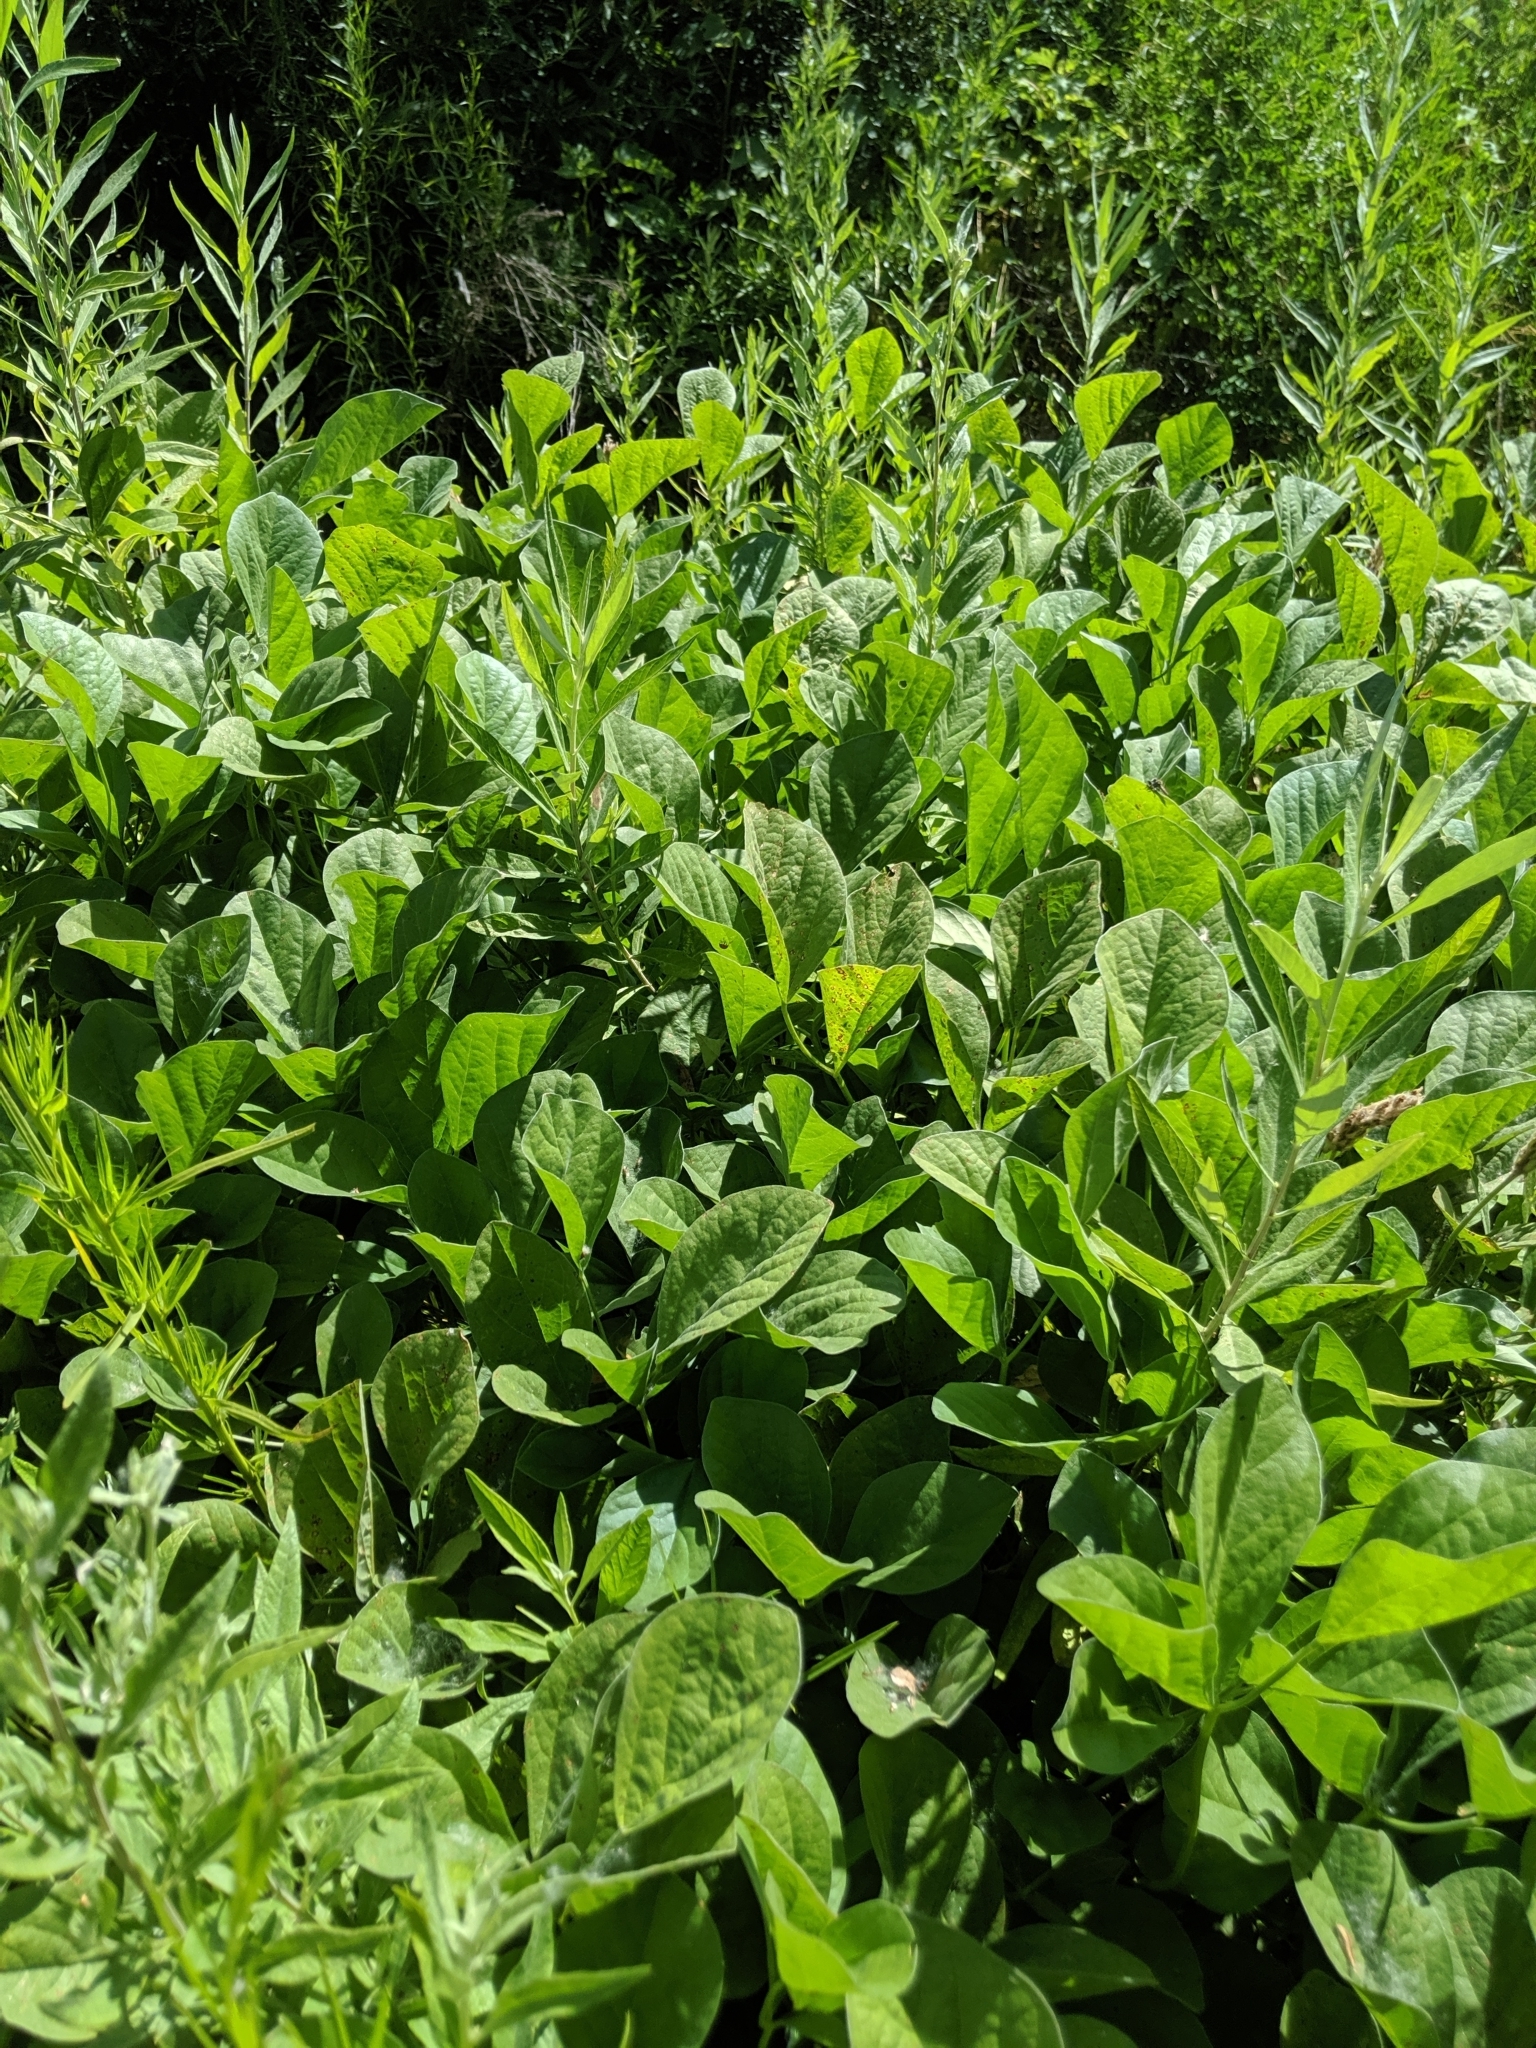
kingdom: Plantae
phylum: Tracheophyta
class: Magnoliopsida
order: Fabales
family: Fabaceae
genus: Hoita
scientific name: Hoita orbicularis
